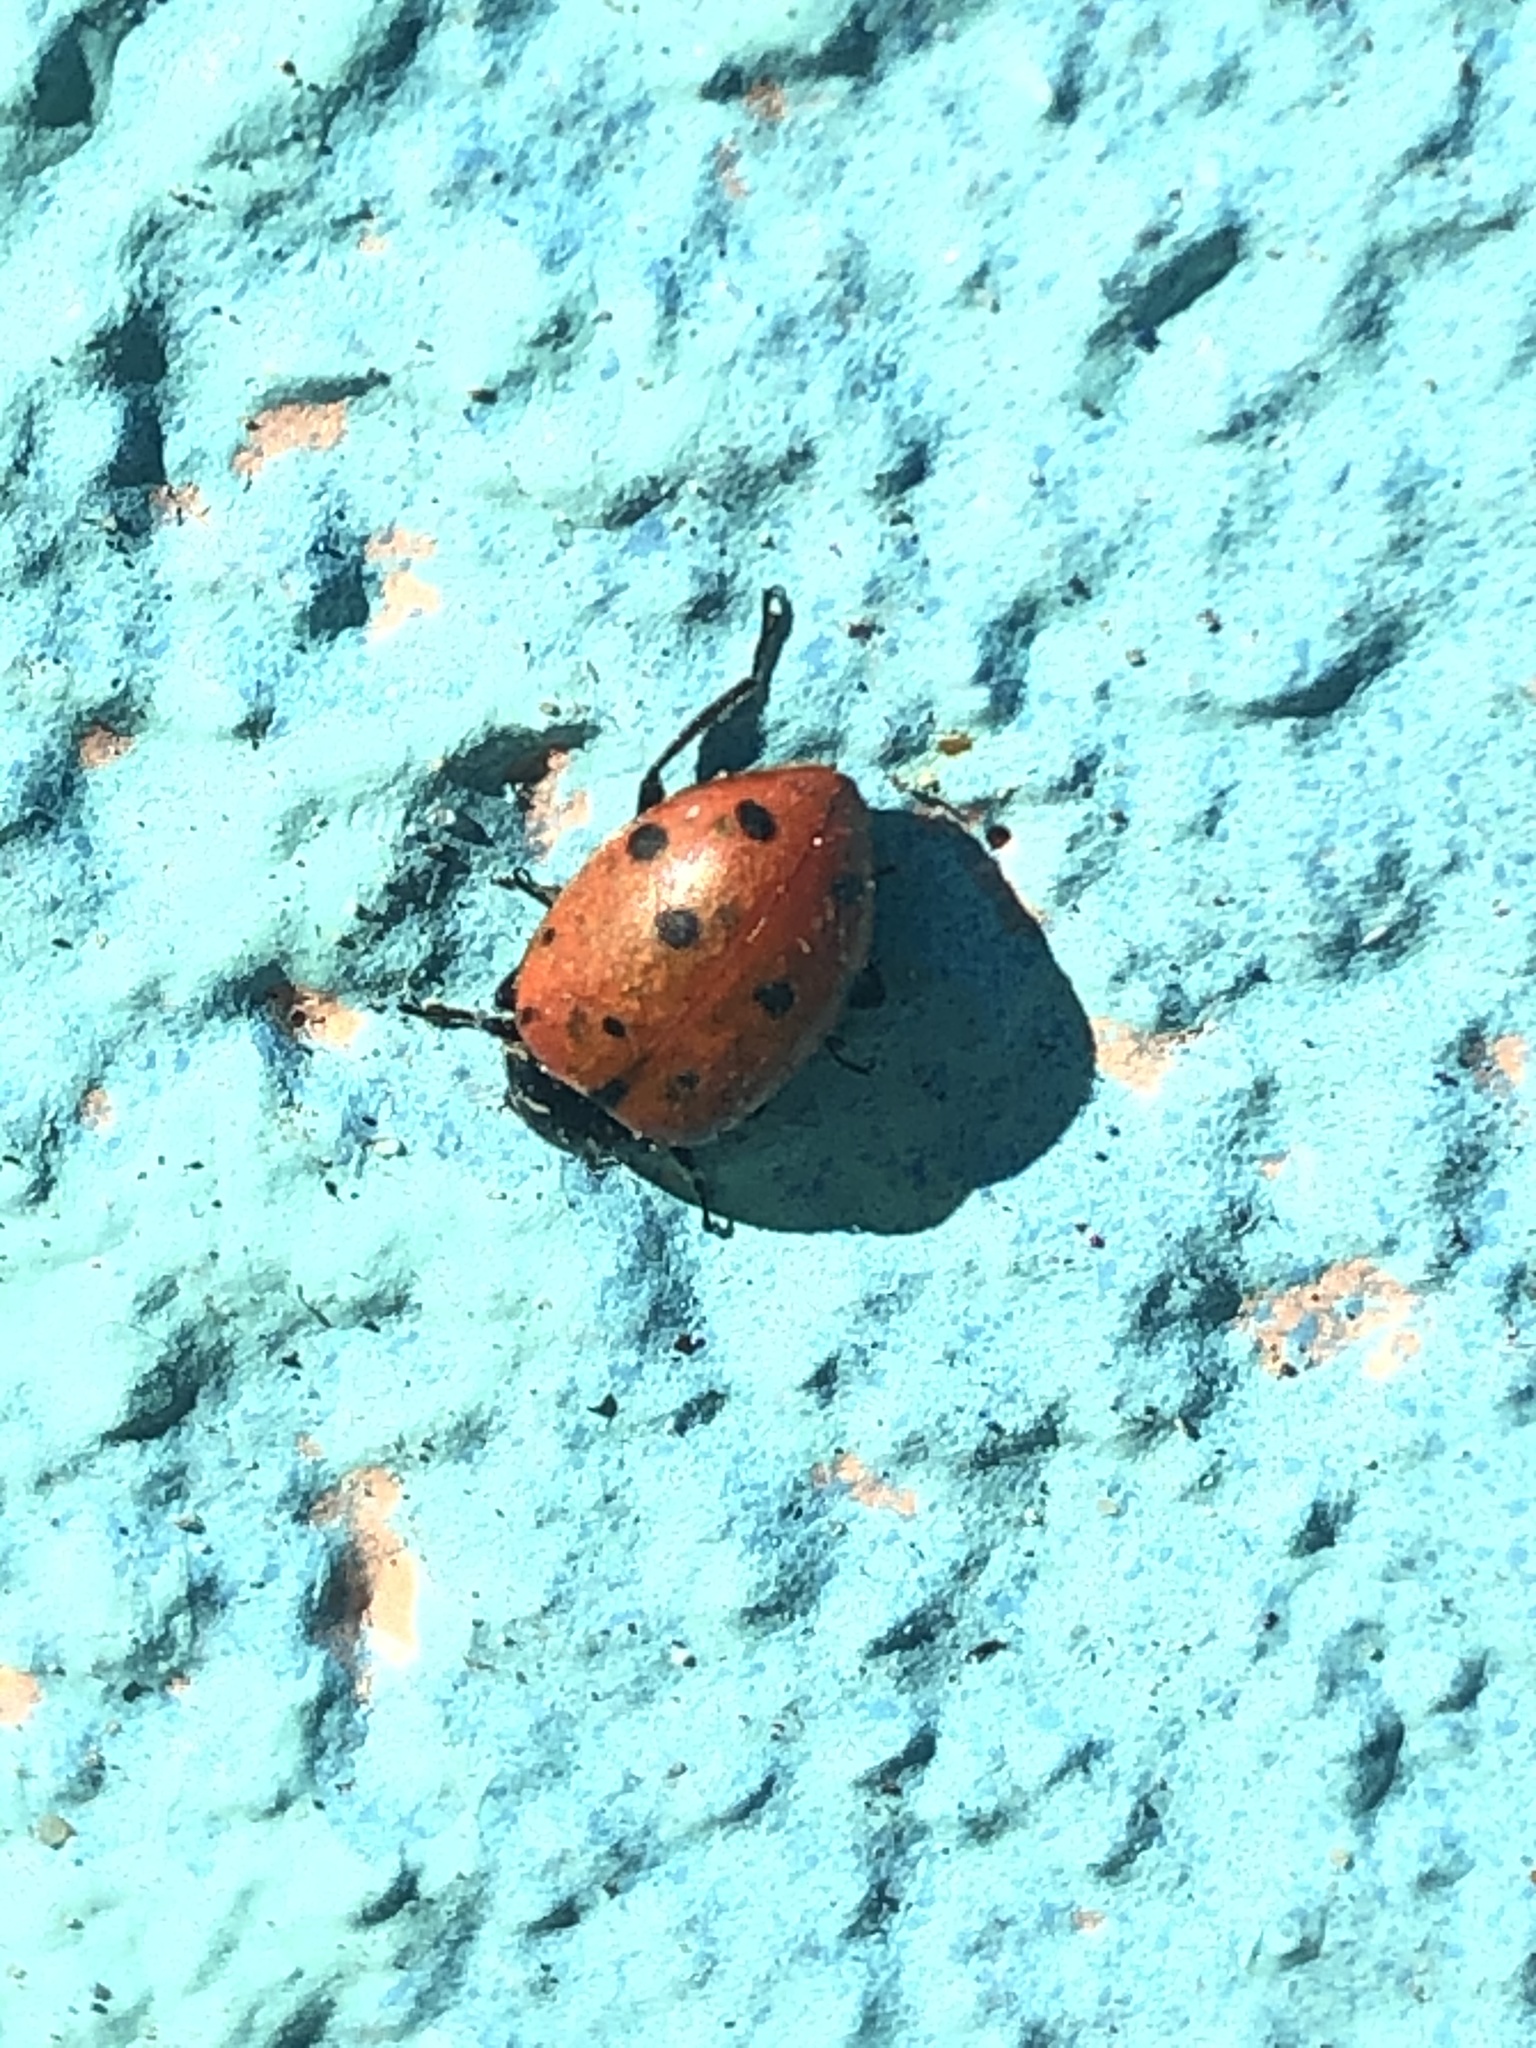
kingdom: Animalia
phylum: Arthropoda
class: Insecta
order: Coleoptera
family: Coccinellidae
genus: Hippodamia
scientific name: Hippodamia convergens
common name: Convergent lady beetle
